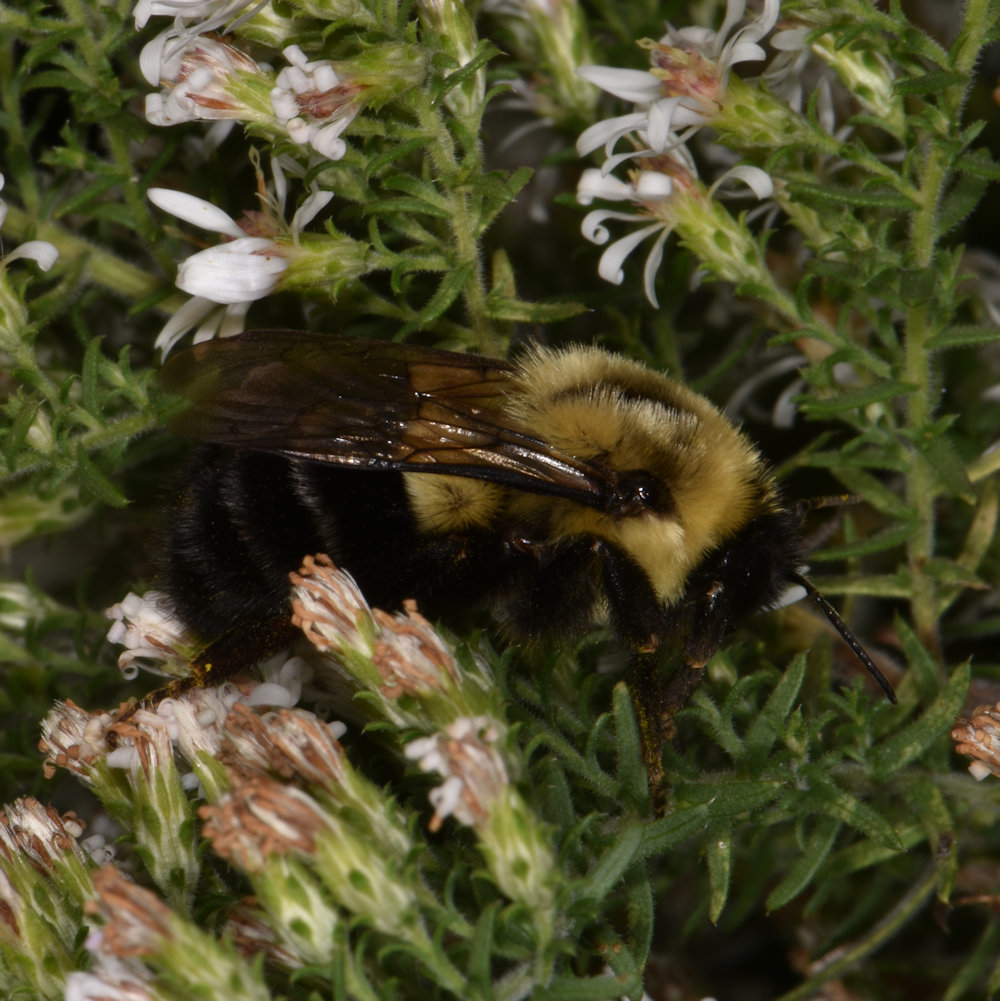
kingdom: Animalia
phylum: Arthropoda
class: Insecta
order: Hymenoptera
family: Apidae
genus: Bombus
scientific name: Bombus impatiens
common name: Common eastern bumble bee
